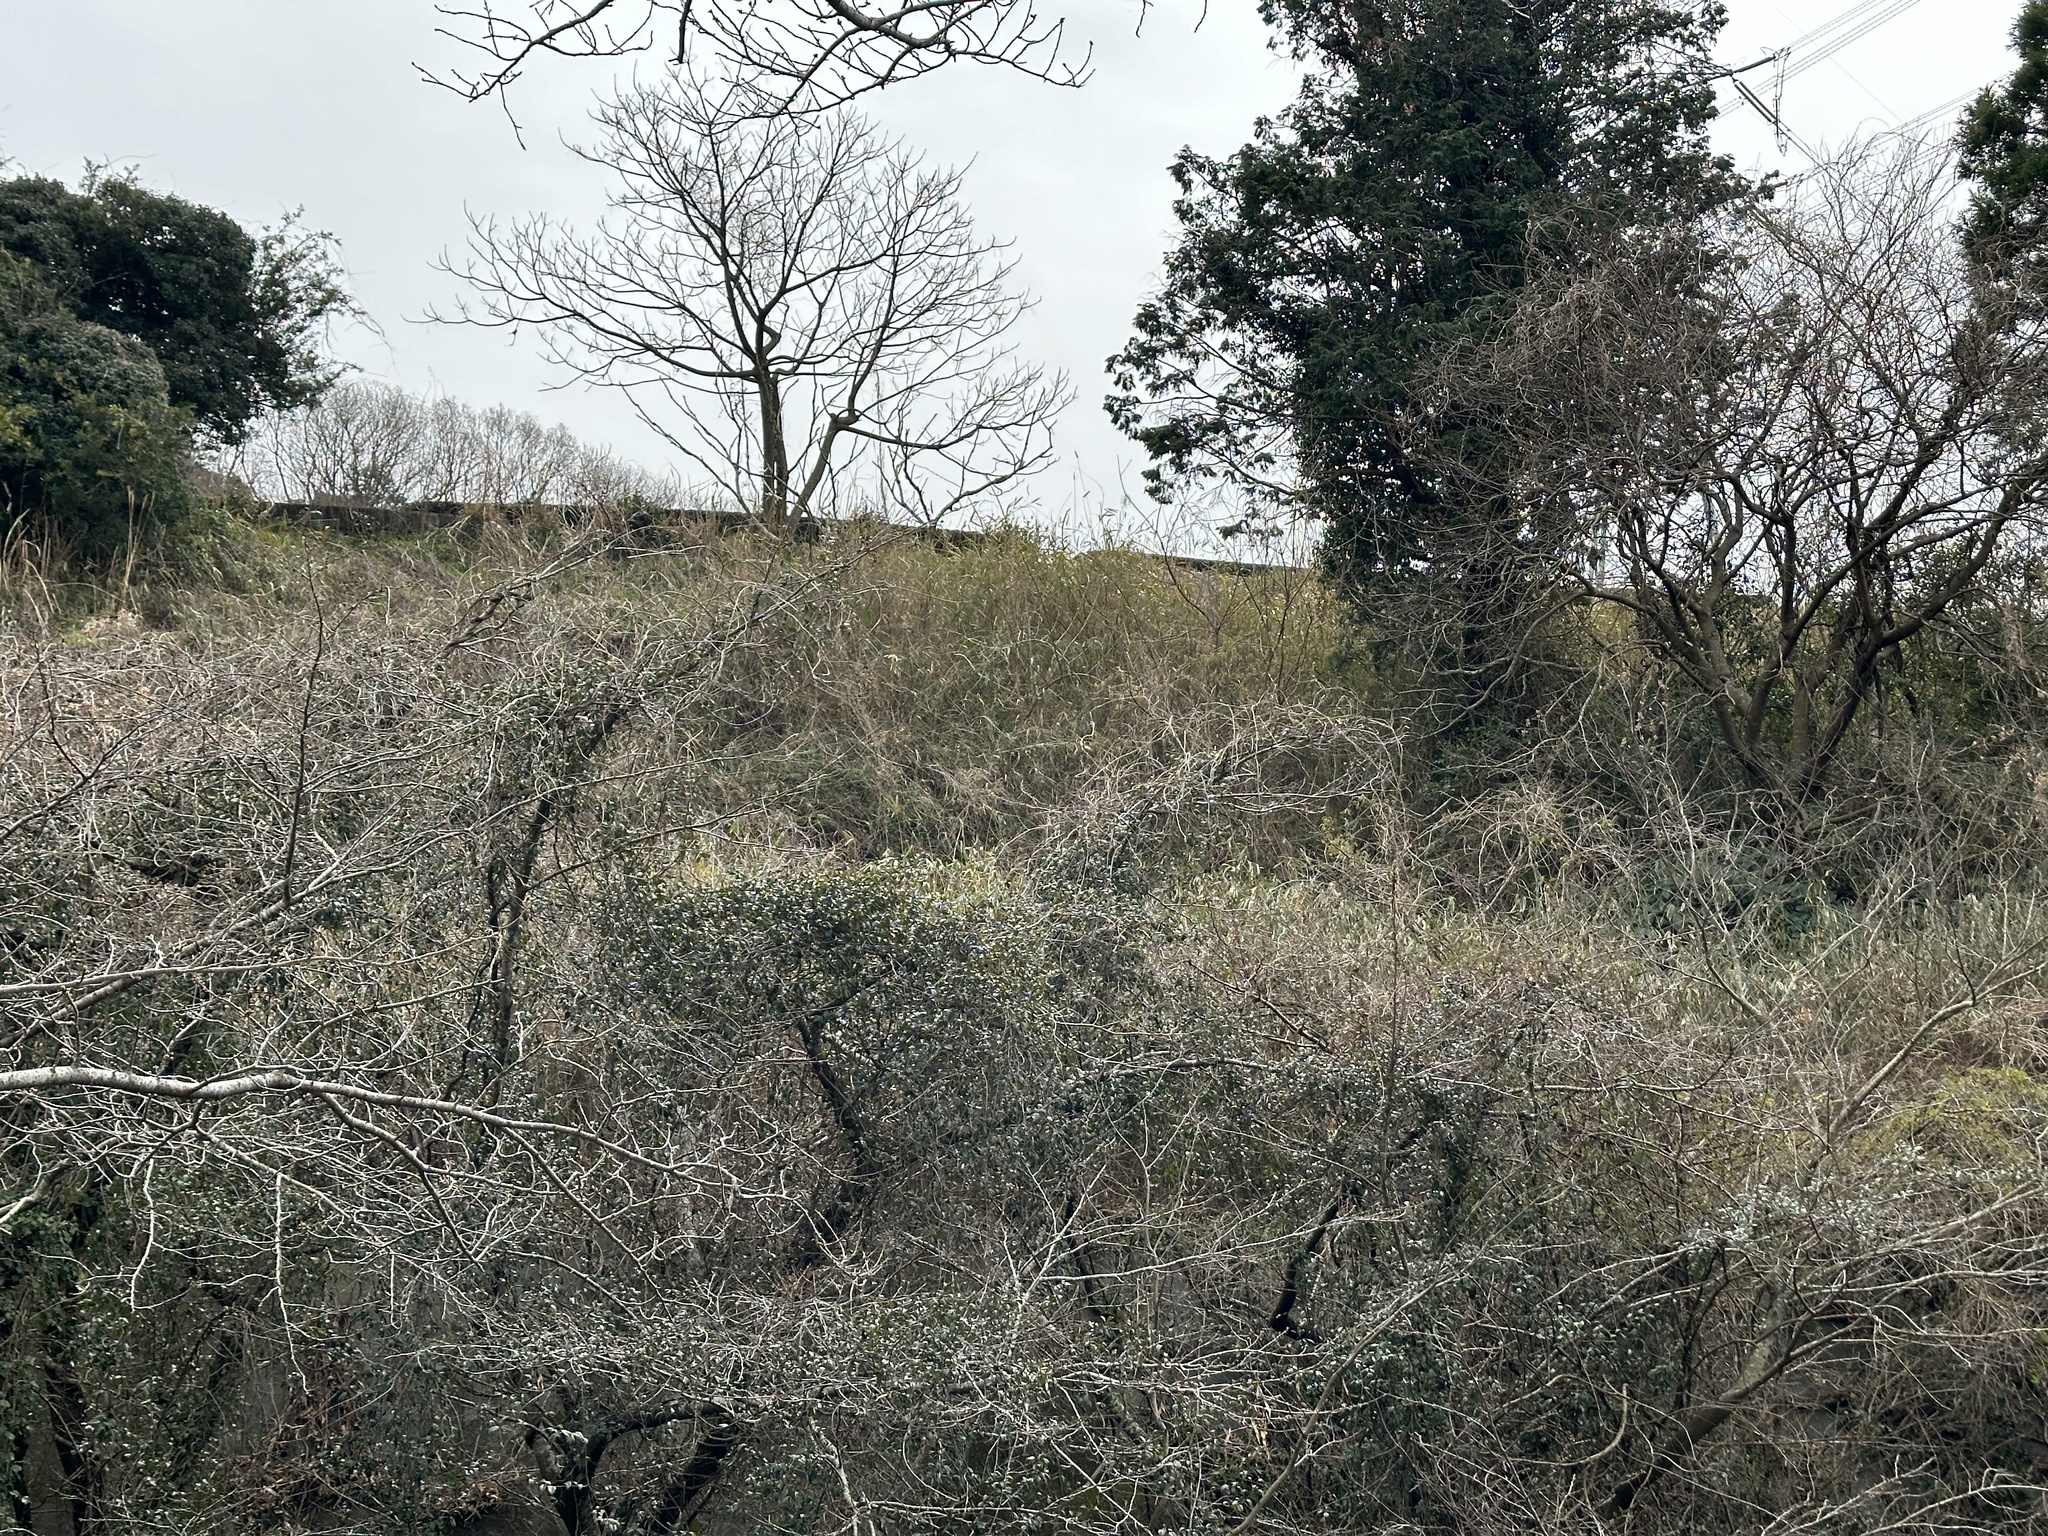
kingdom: Animalia
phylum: Chordata
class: Aves
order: Galliformes
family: Phasianidae
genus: Bambusicola
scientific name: Bambusicola thoracicus
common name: Chinese bamboo partridge
